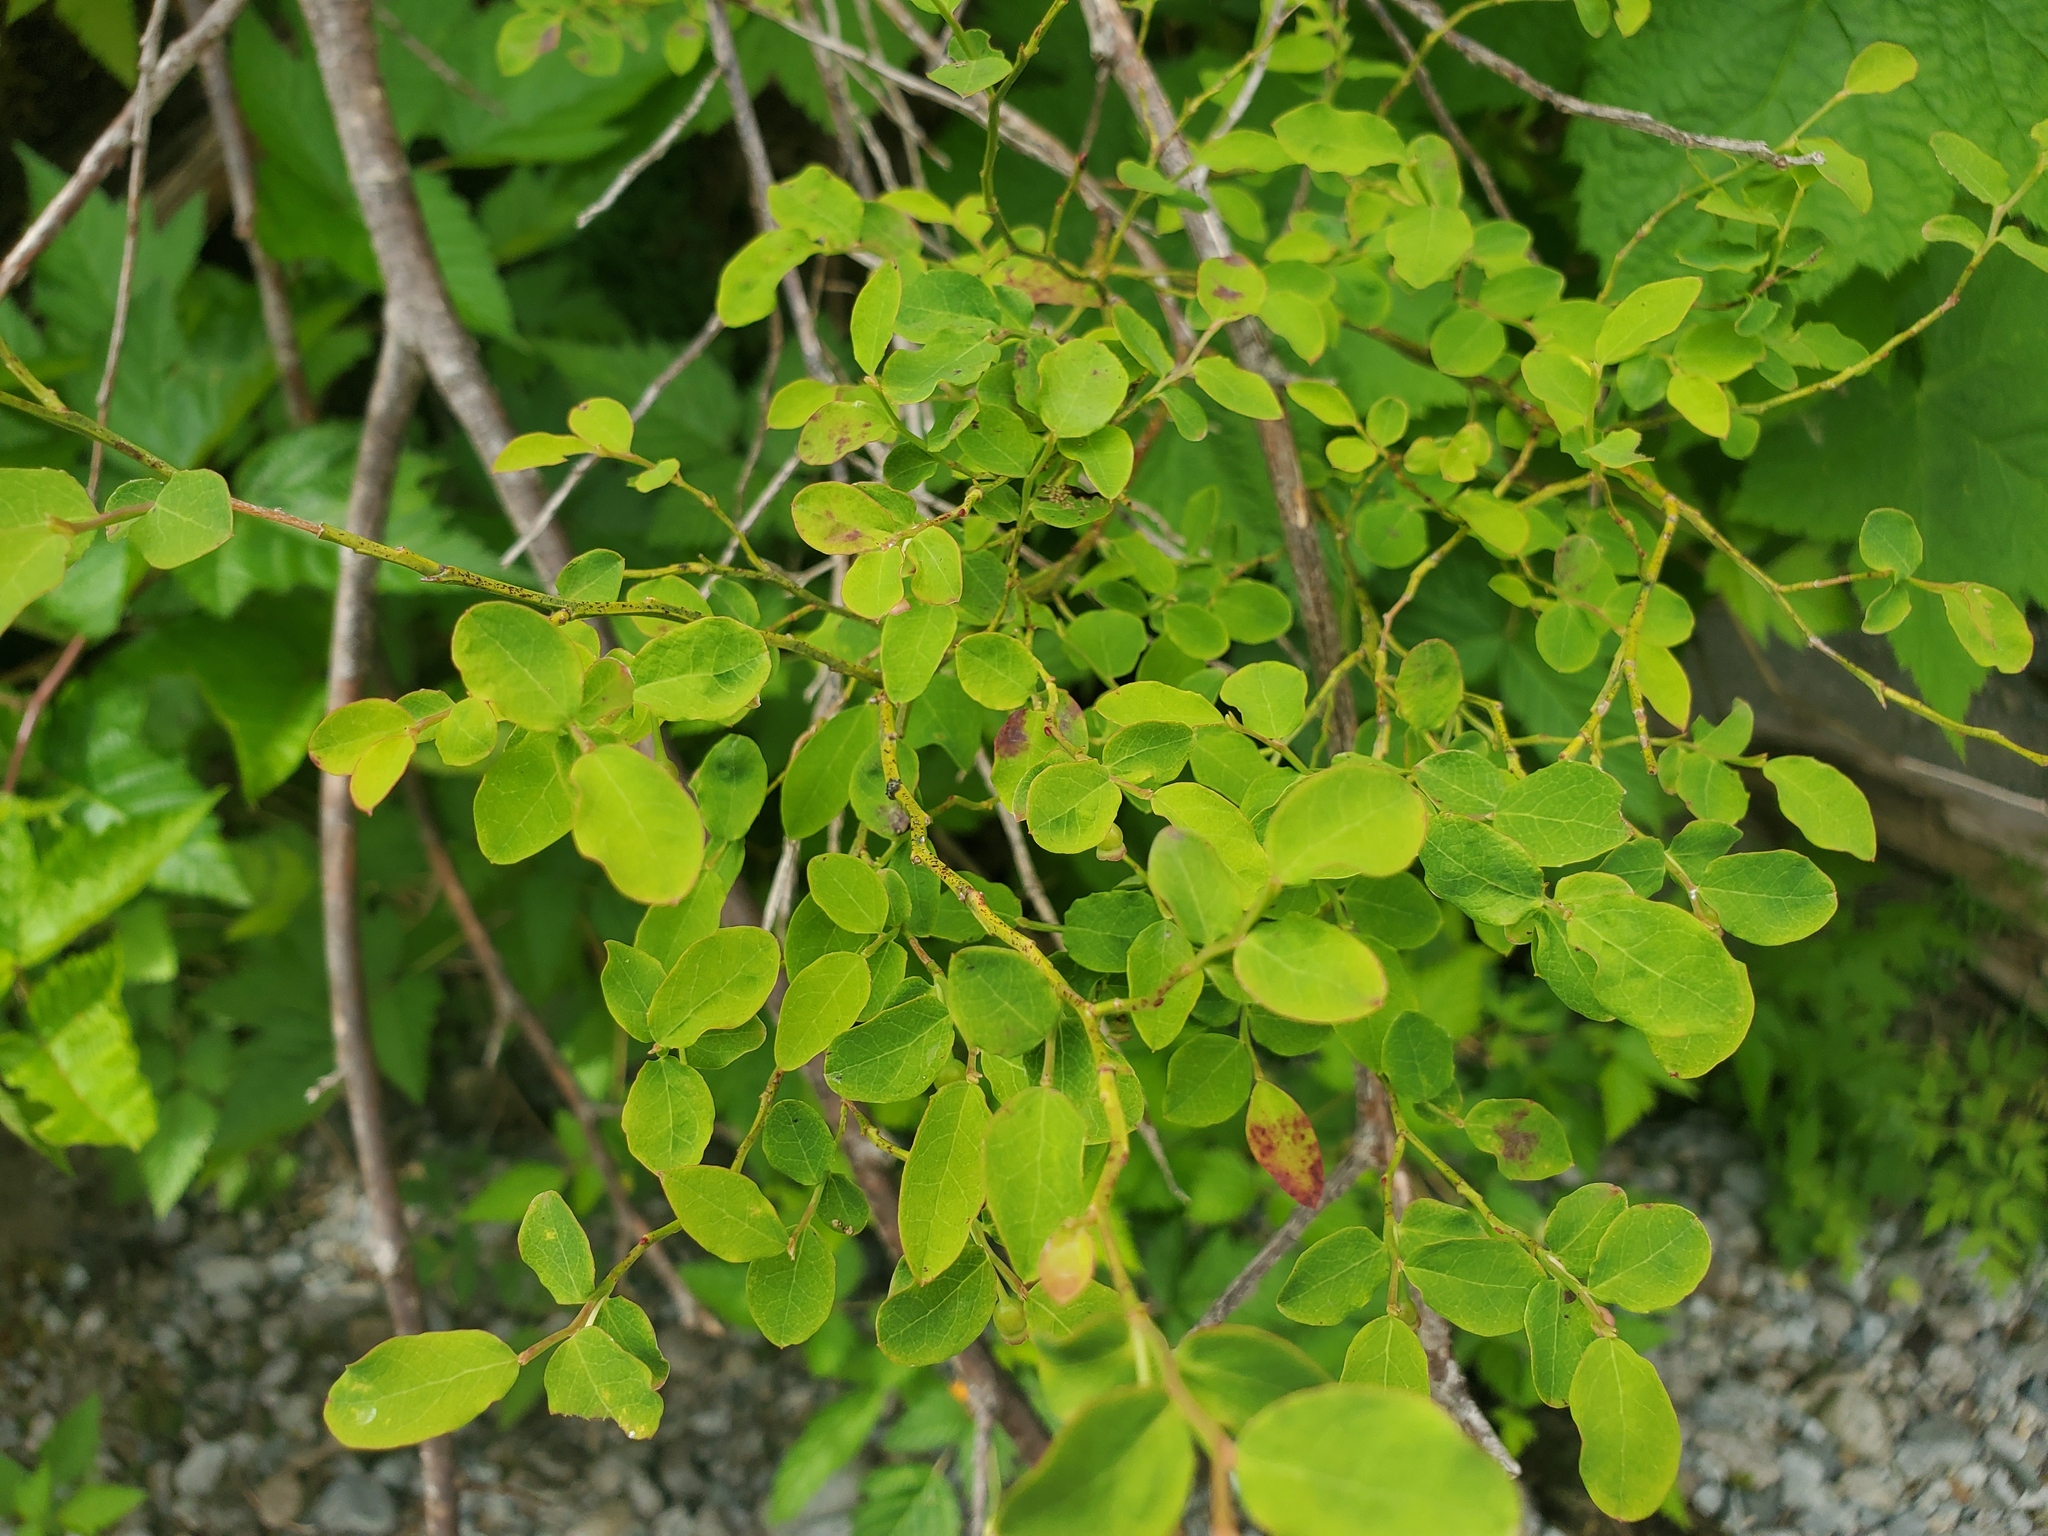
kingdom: Plantae
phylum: Tracheophyta
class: Magnoliopsida
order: Ericales
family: Ericaceae
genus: Vaccinium
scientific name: Vaccinium parvifolium
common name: Red-huckleberry
